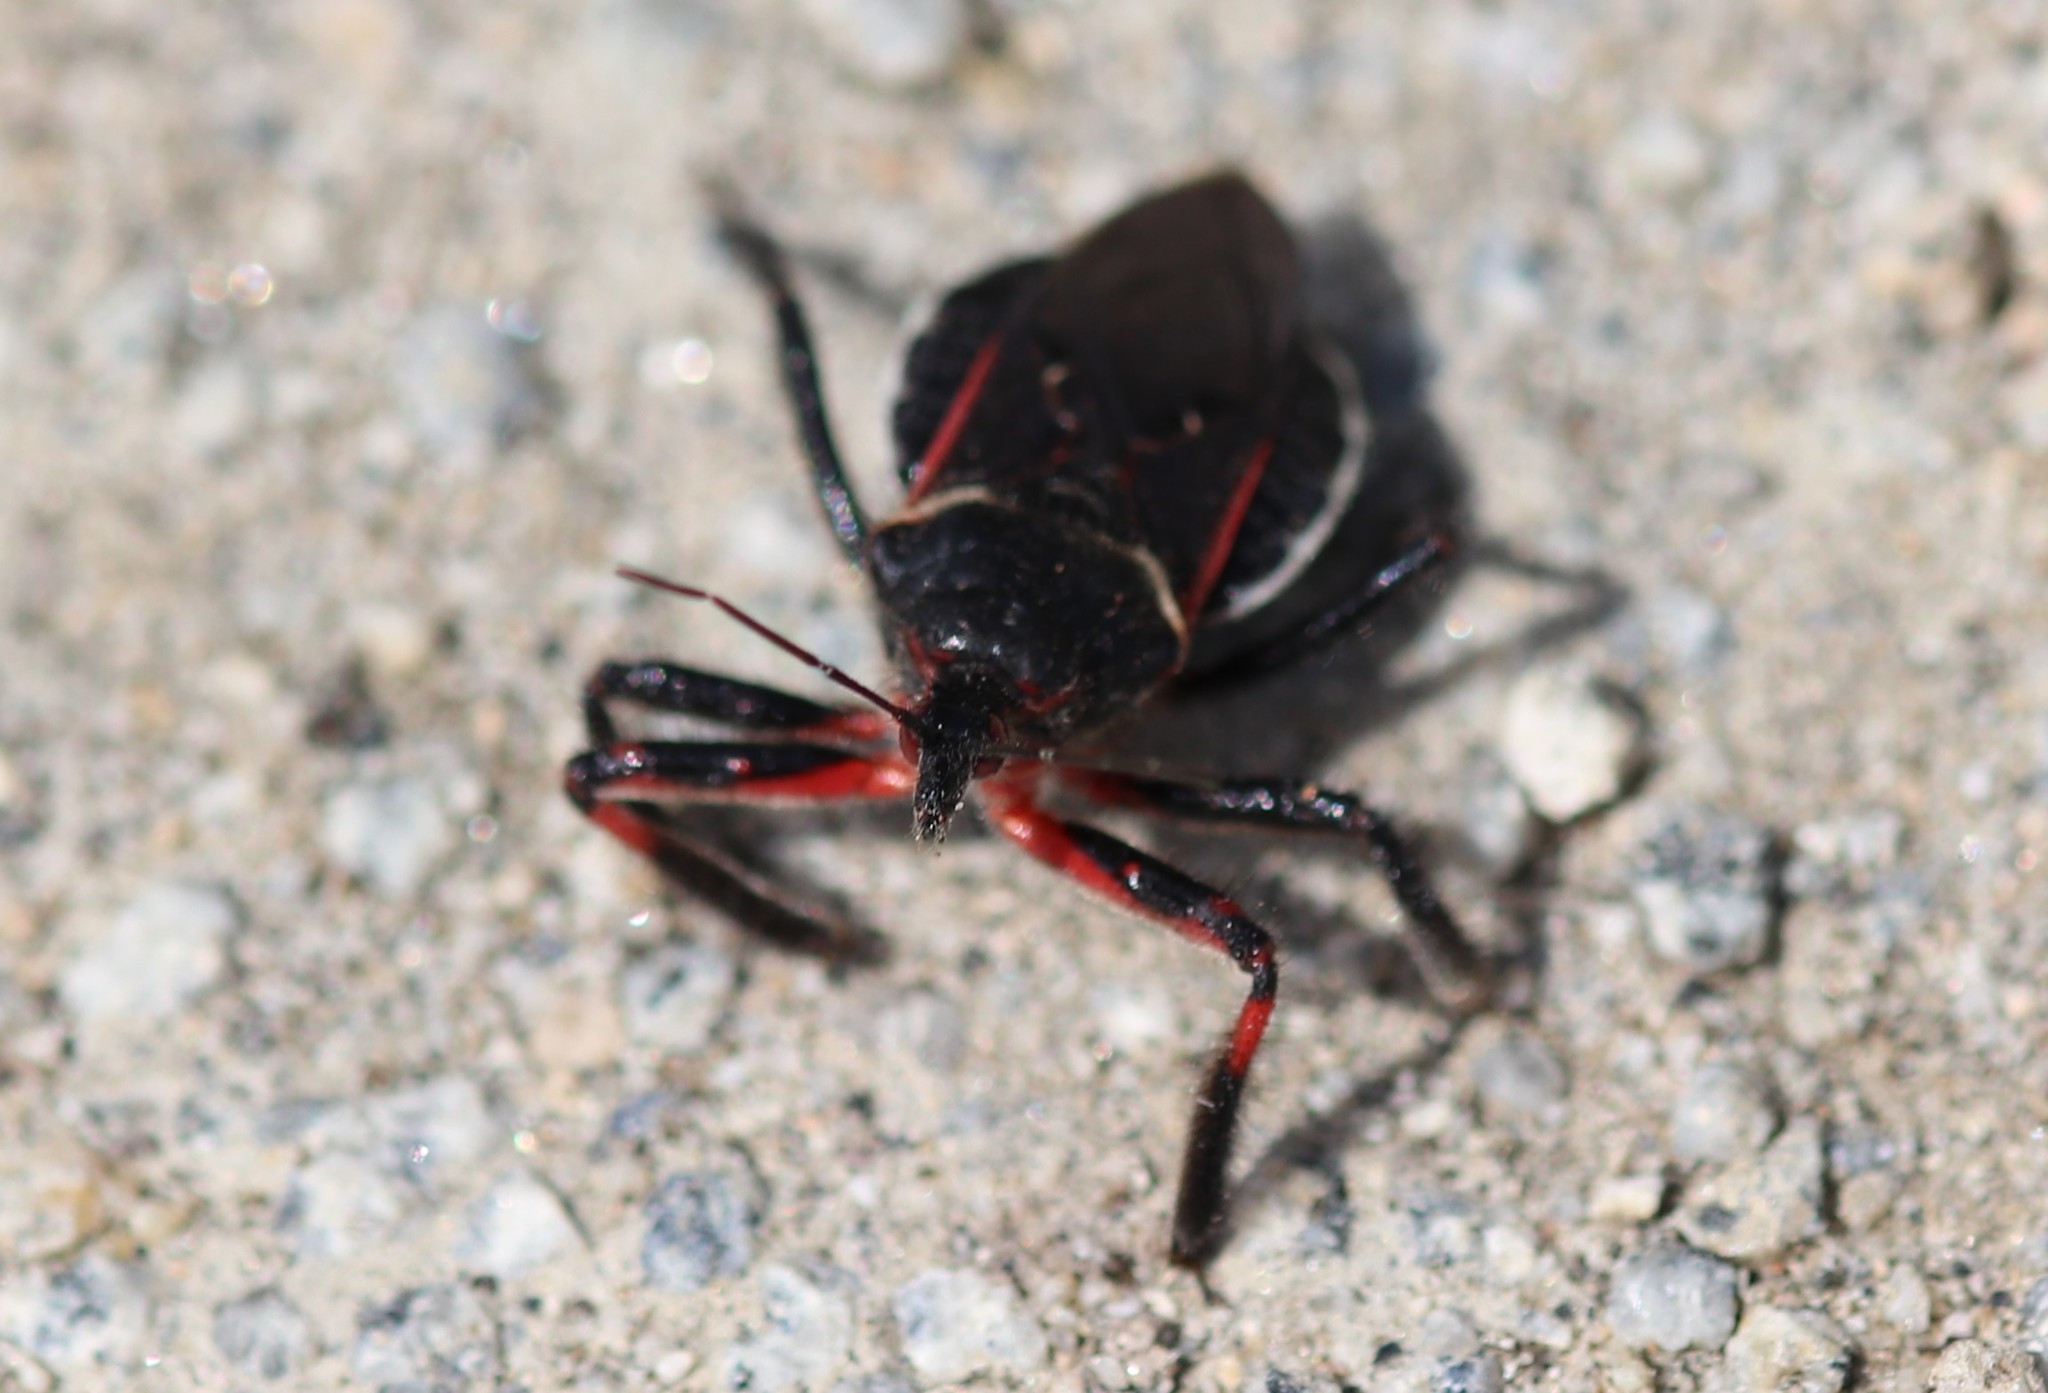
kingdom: Animalia
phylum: Arthropoda
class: Insecta
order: Hemiptera
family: Reduviidae
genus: Apiomerus
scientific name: Apiomerus californicus
